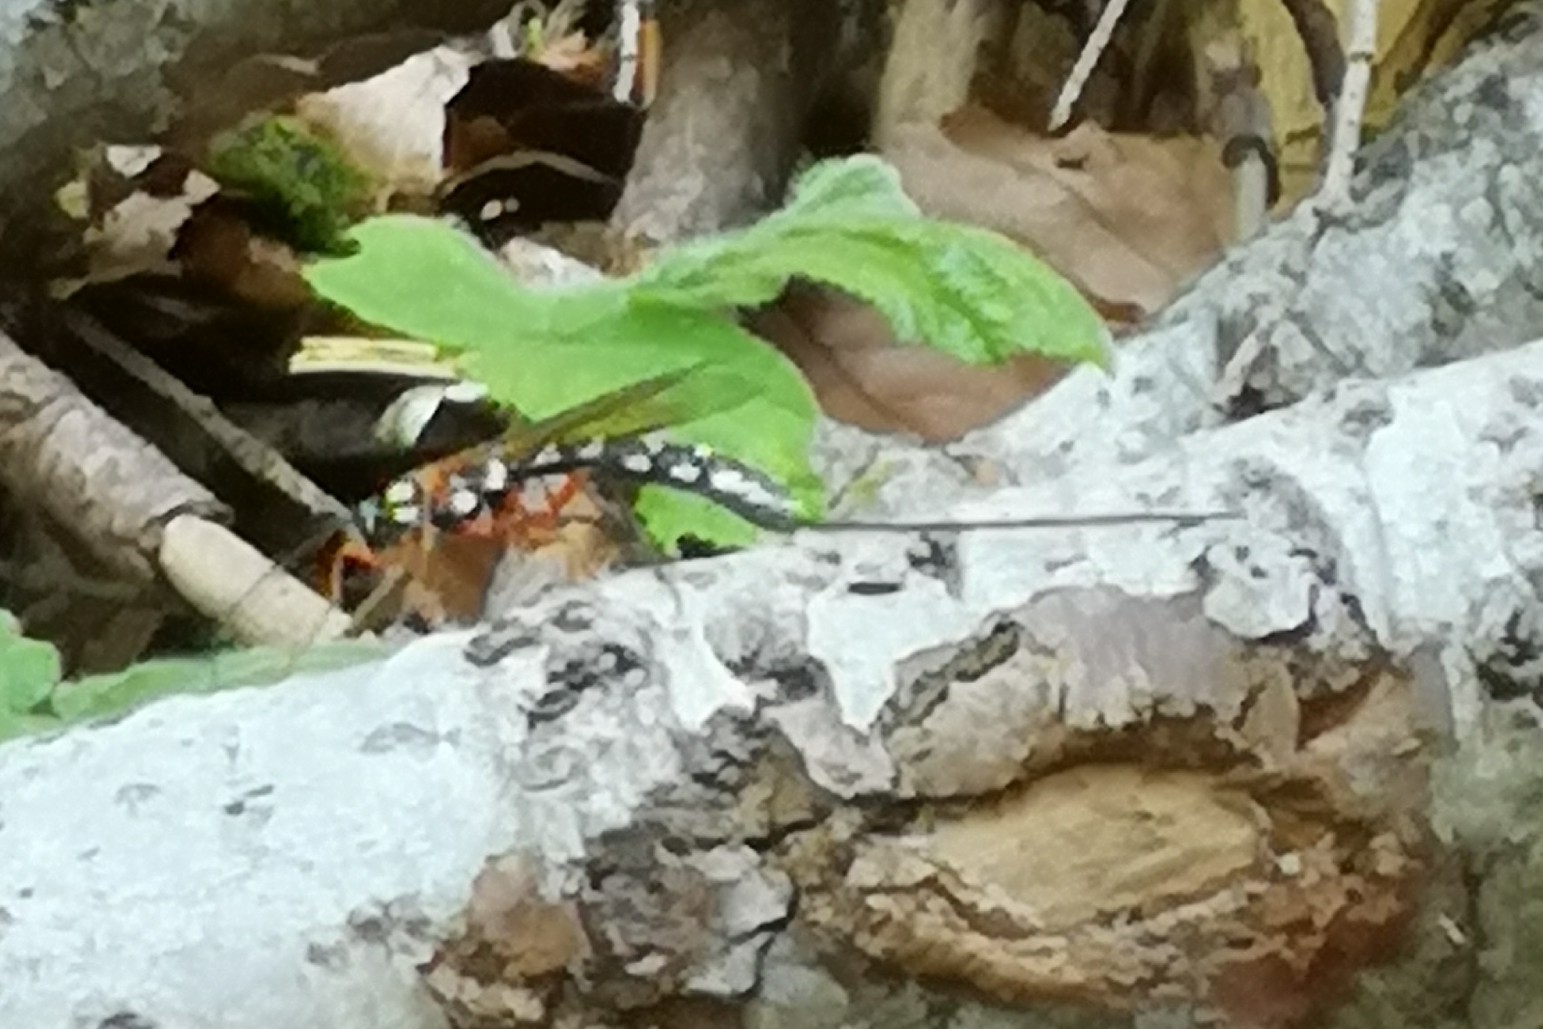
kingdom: Animalia
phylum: Arthropoda
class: Insecta
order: Hymenoptera
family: Ichneumonidae
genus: Rhyssa
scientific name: Rhyssa persuasoria
